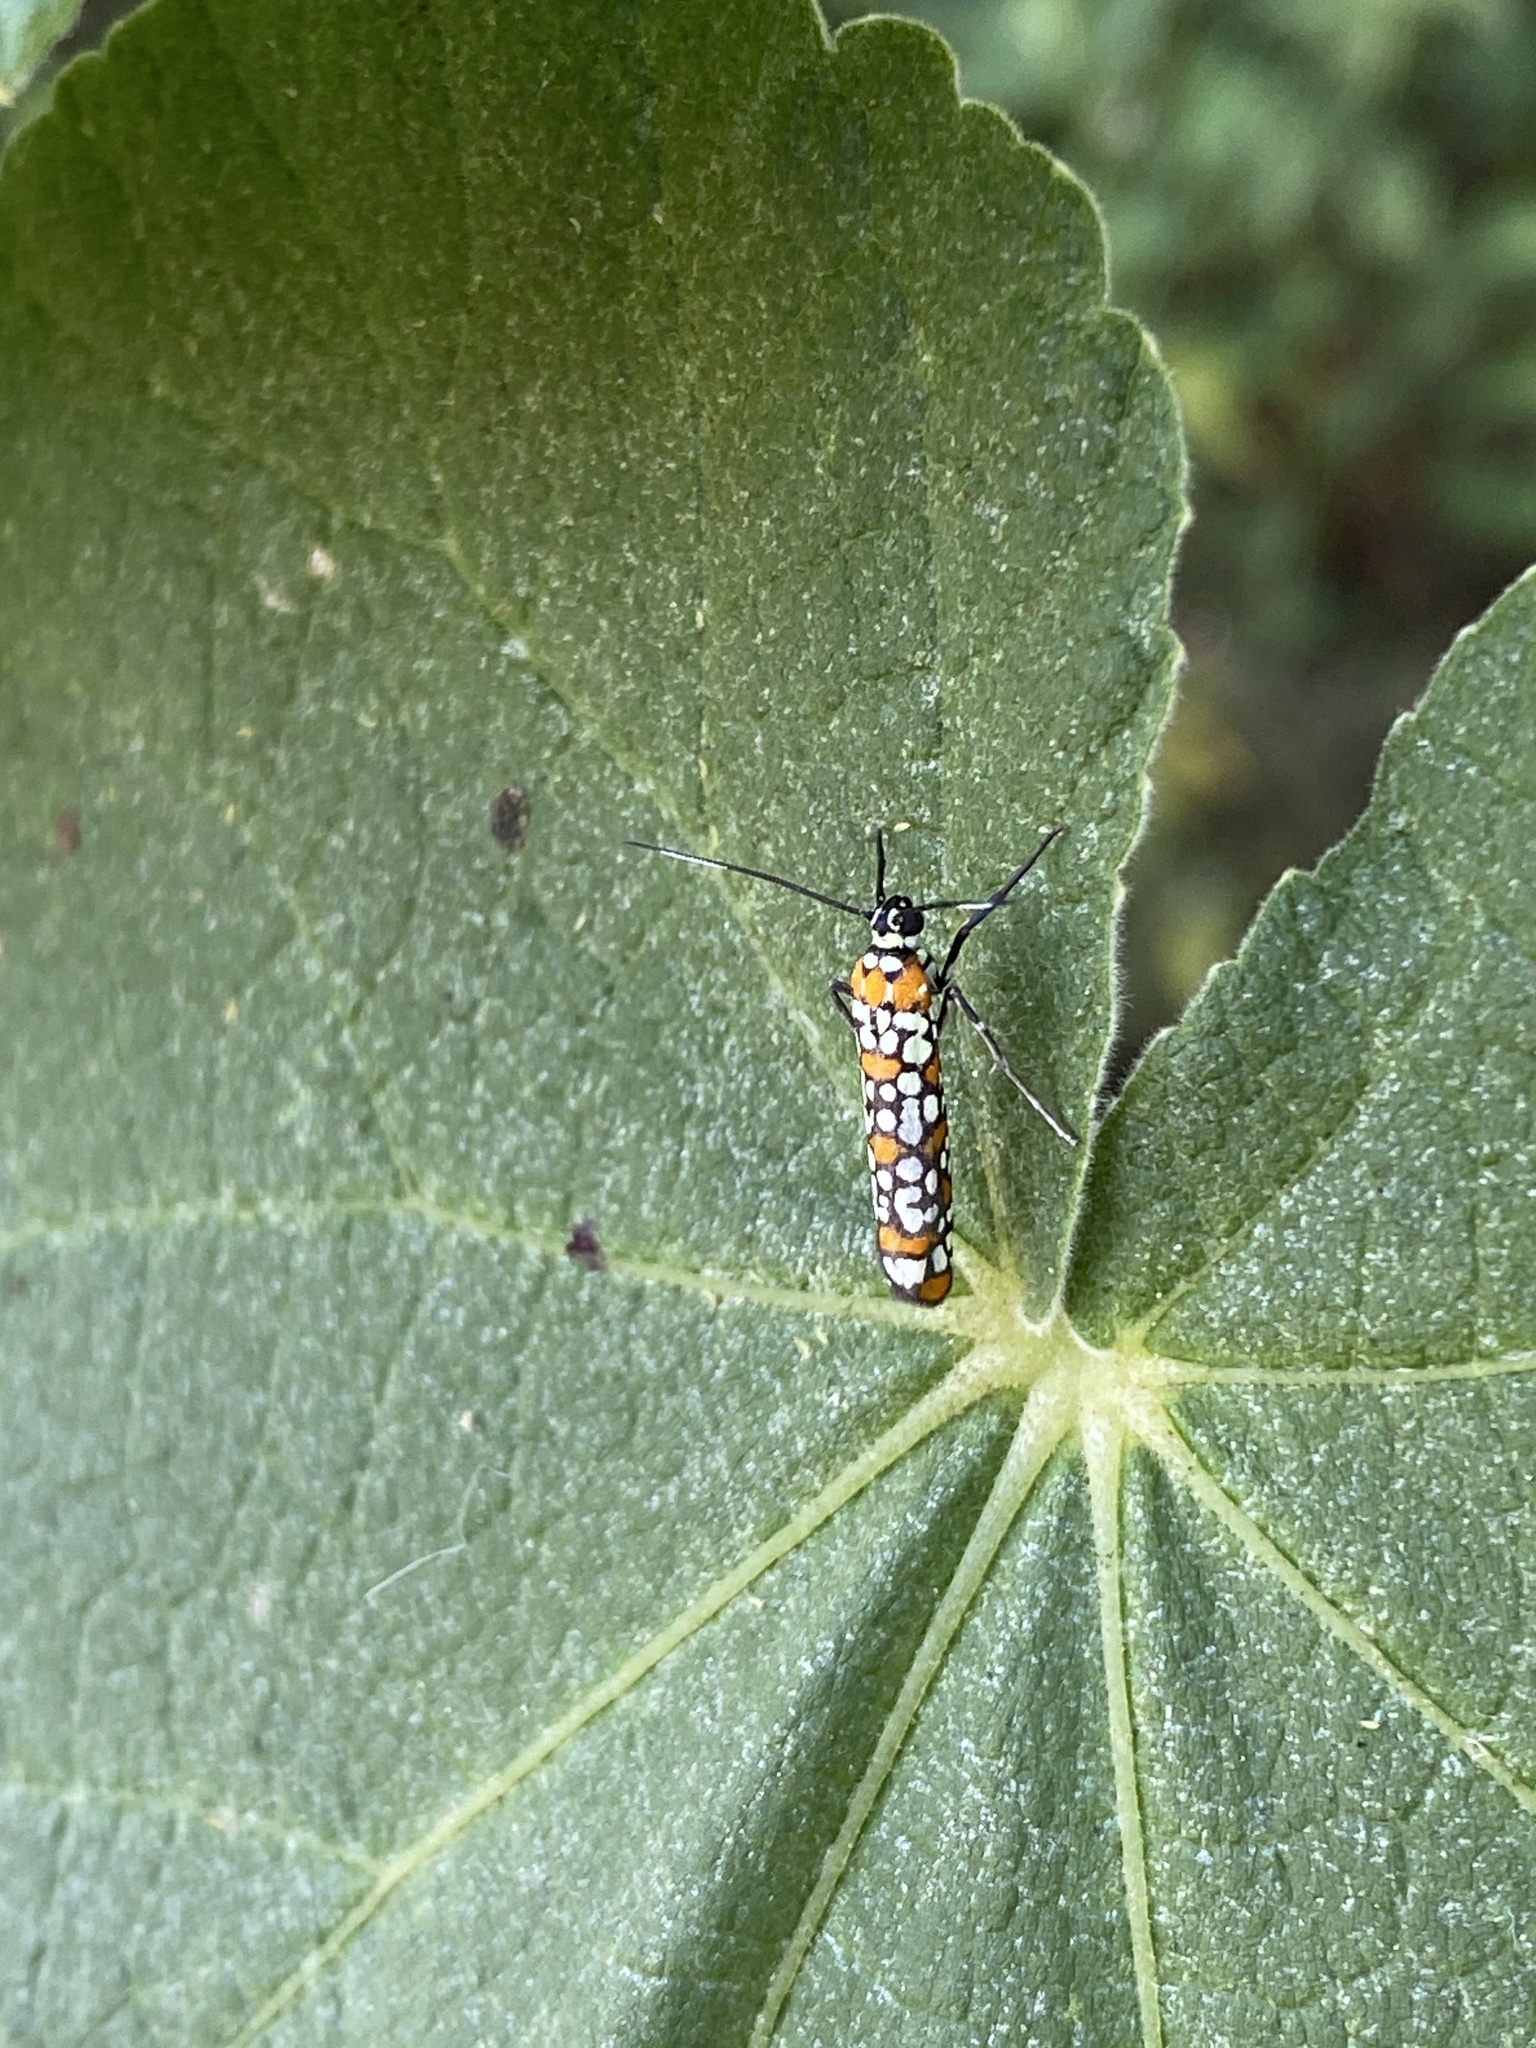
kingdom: Animalia
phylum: Arthropoda
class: Insecta
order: Lepidoptera
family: Attevidae
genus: Atteva
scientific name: Atteva punctella
